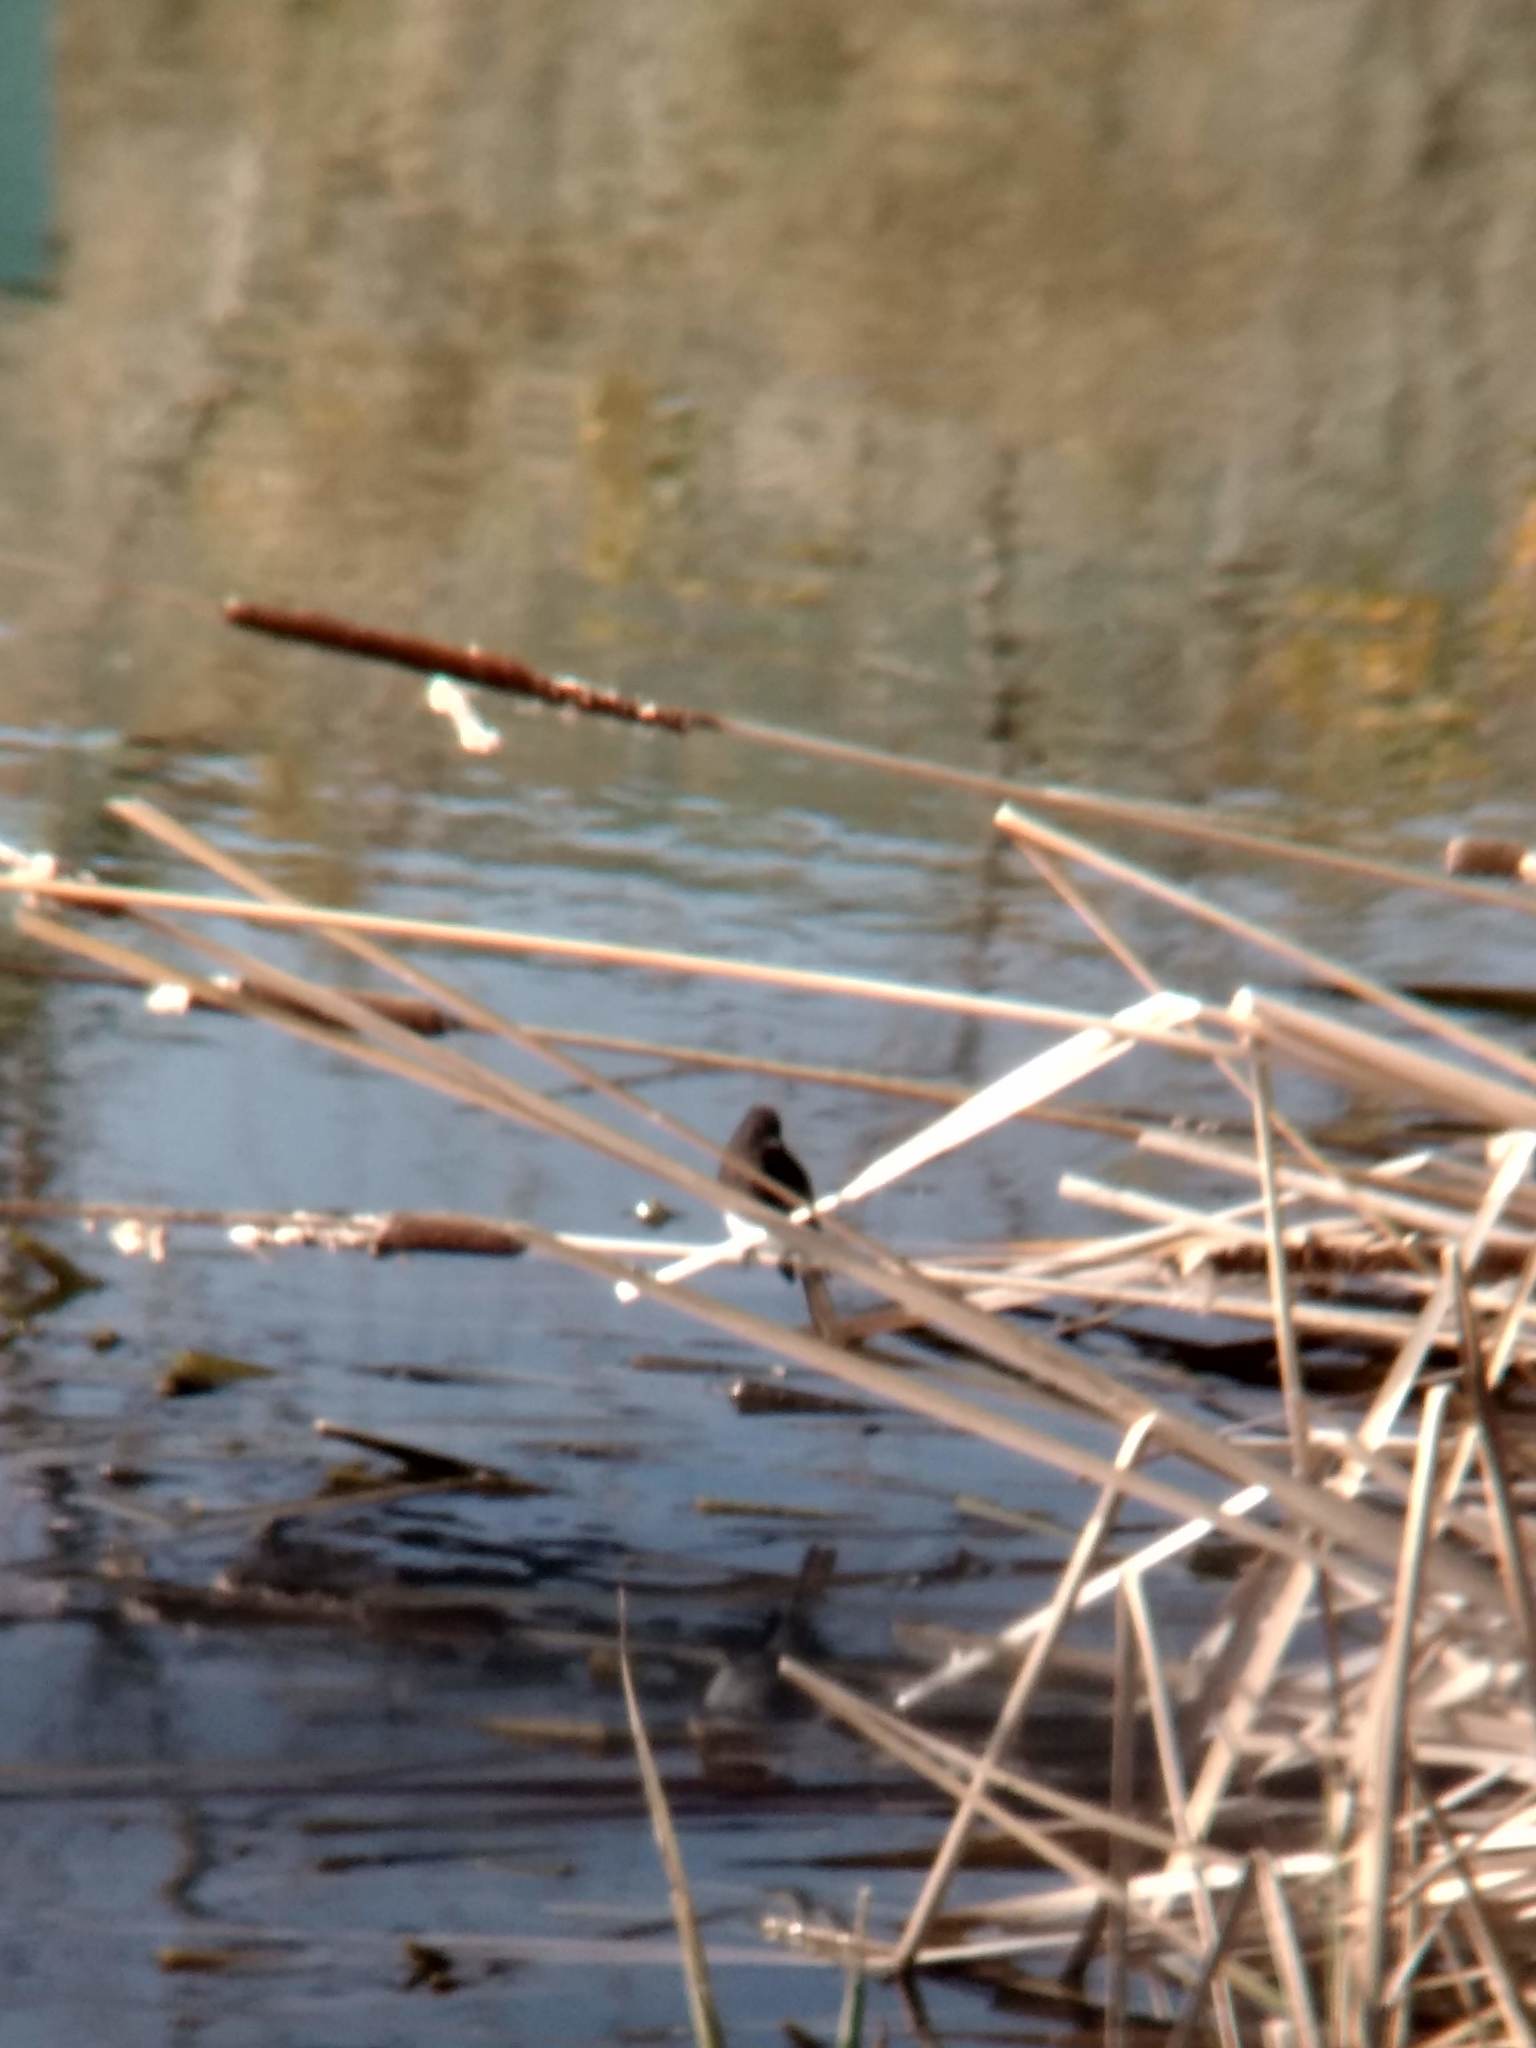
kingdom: Animalia
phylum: Chordata
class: Aves
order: Passeriformes
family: Tyrannidae
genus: Sayornis
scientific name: Sayornis nigricans
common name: Black phoebe
